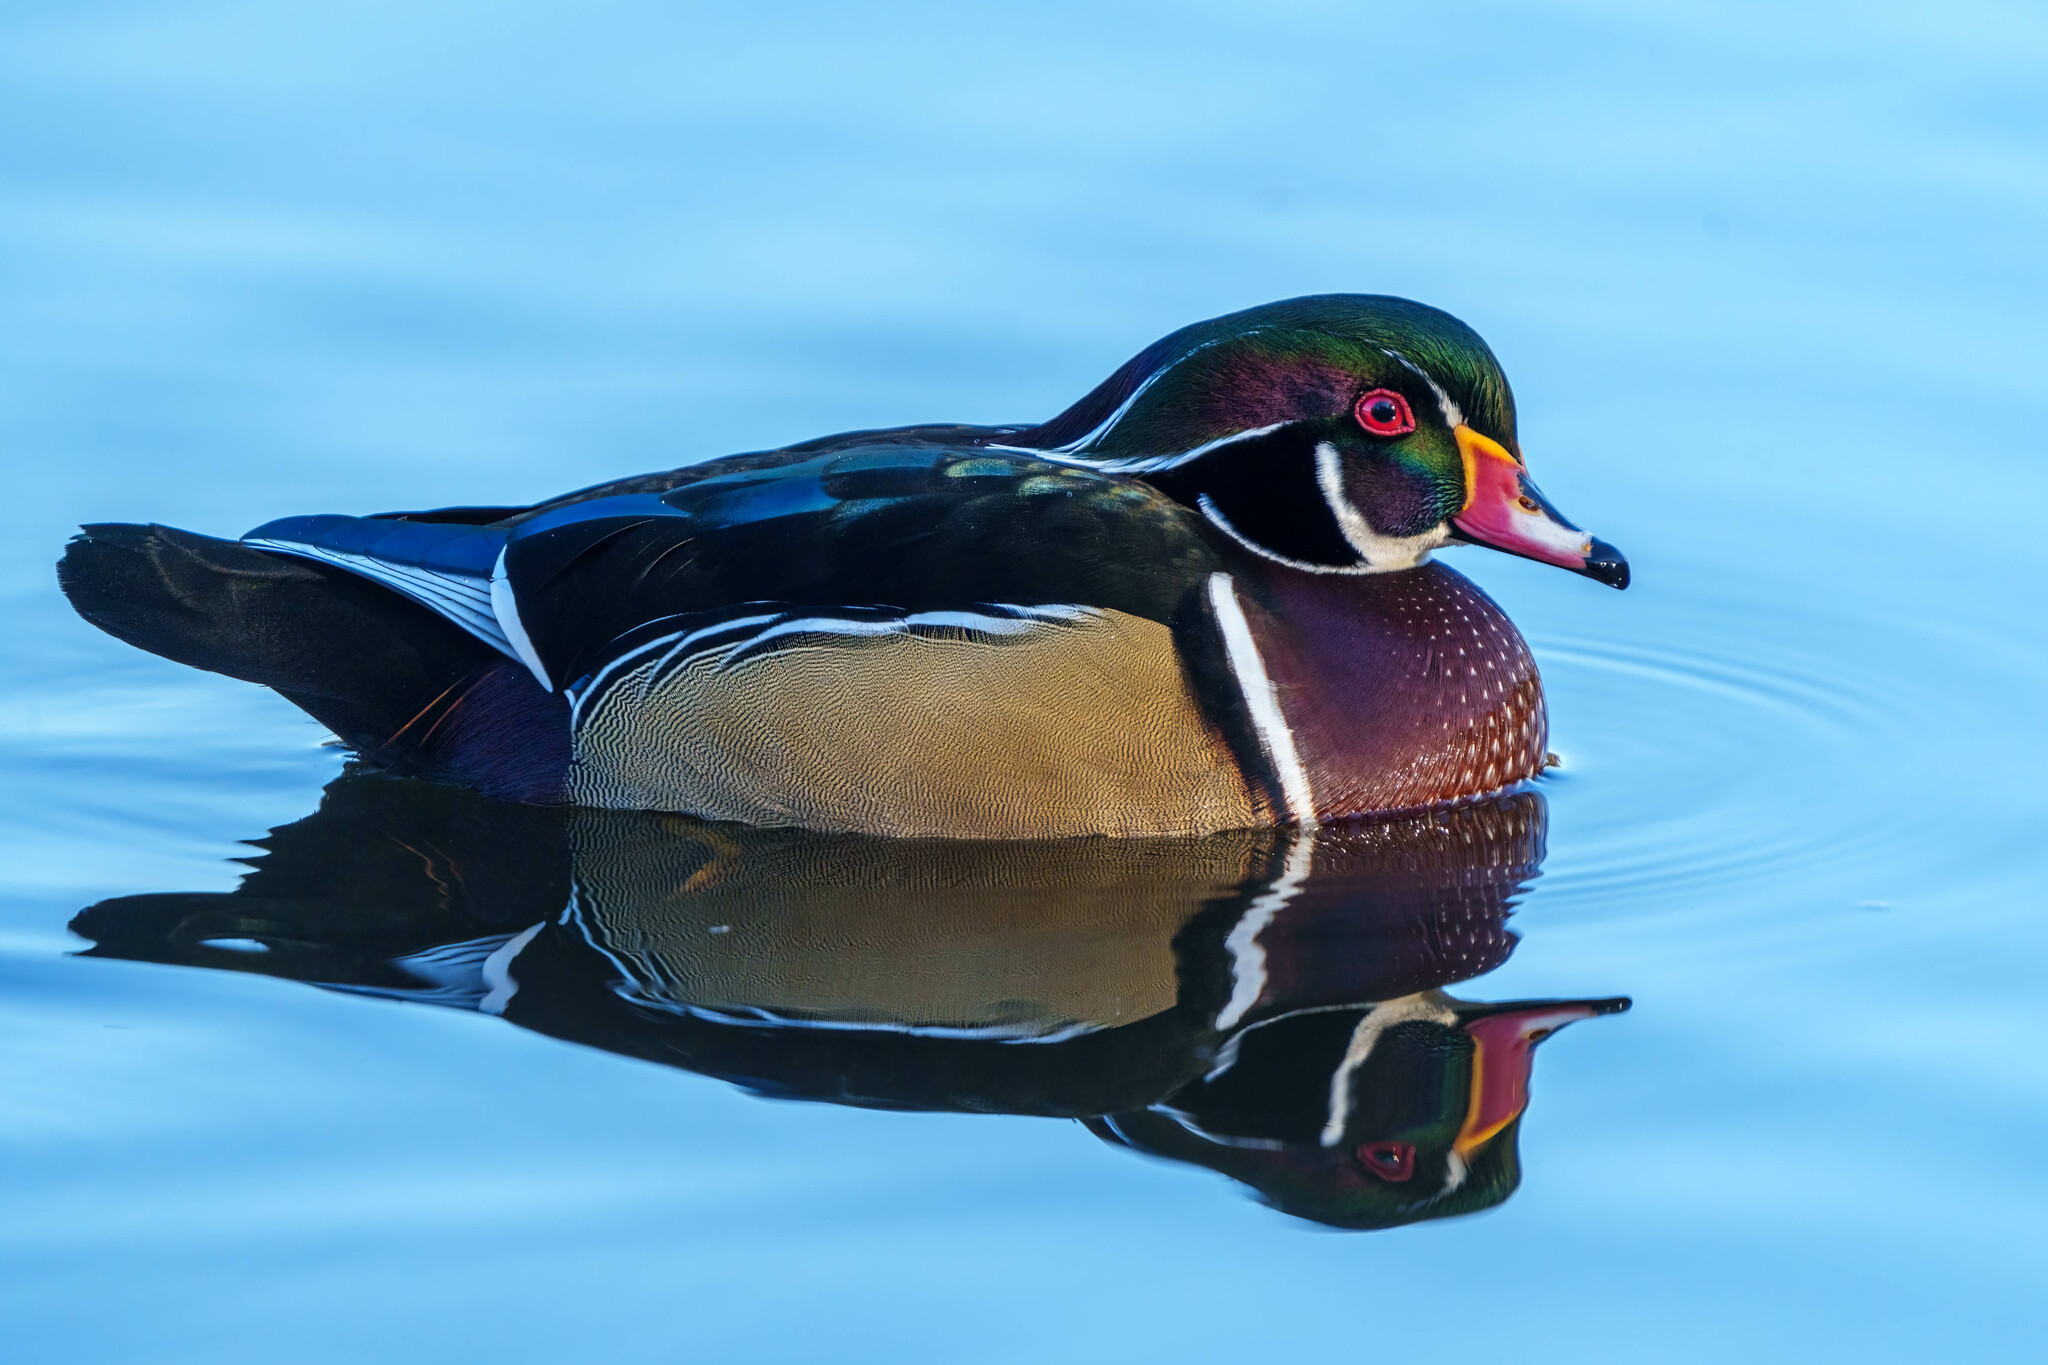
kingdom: Animalia
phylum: Chordata
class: Aves
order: Anseriformes
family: Anatidae
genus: Aix
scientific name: Aix sponsa
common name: Wood duck
